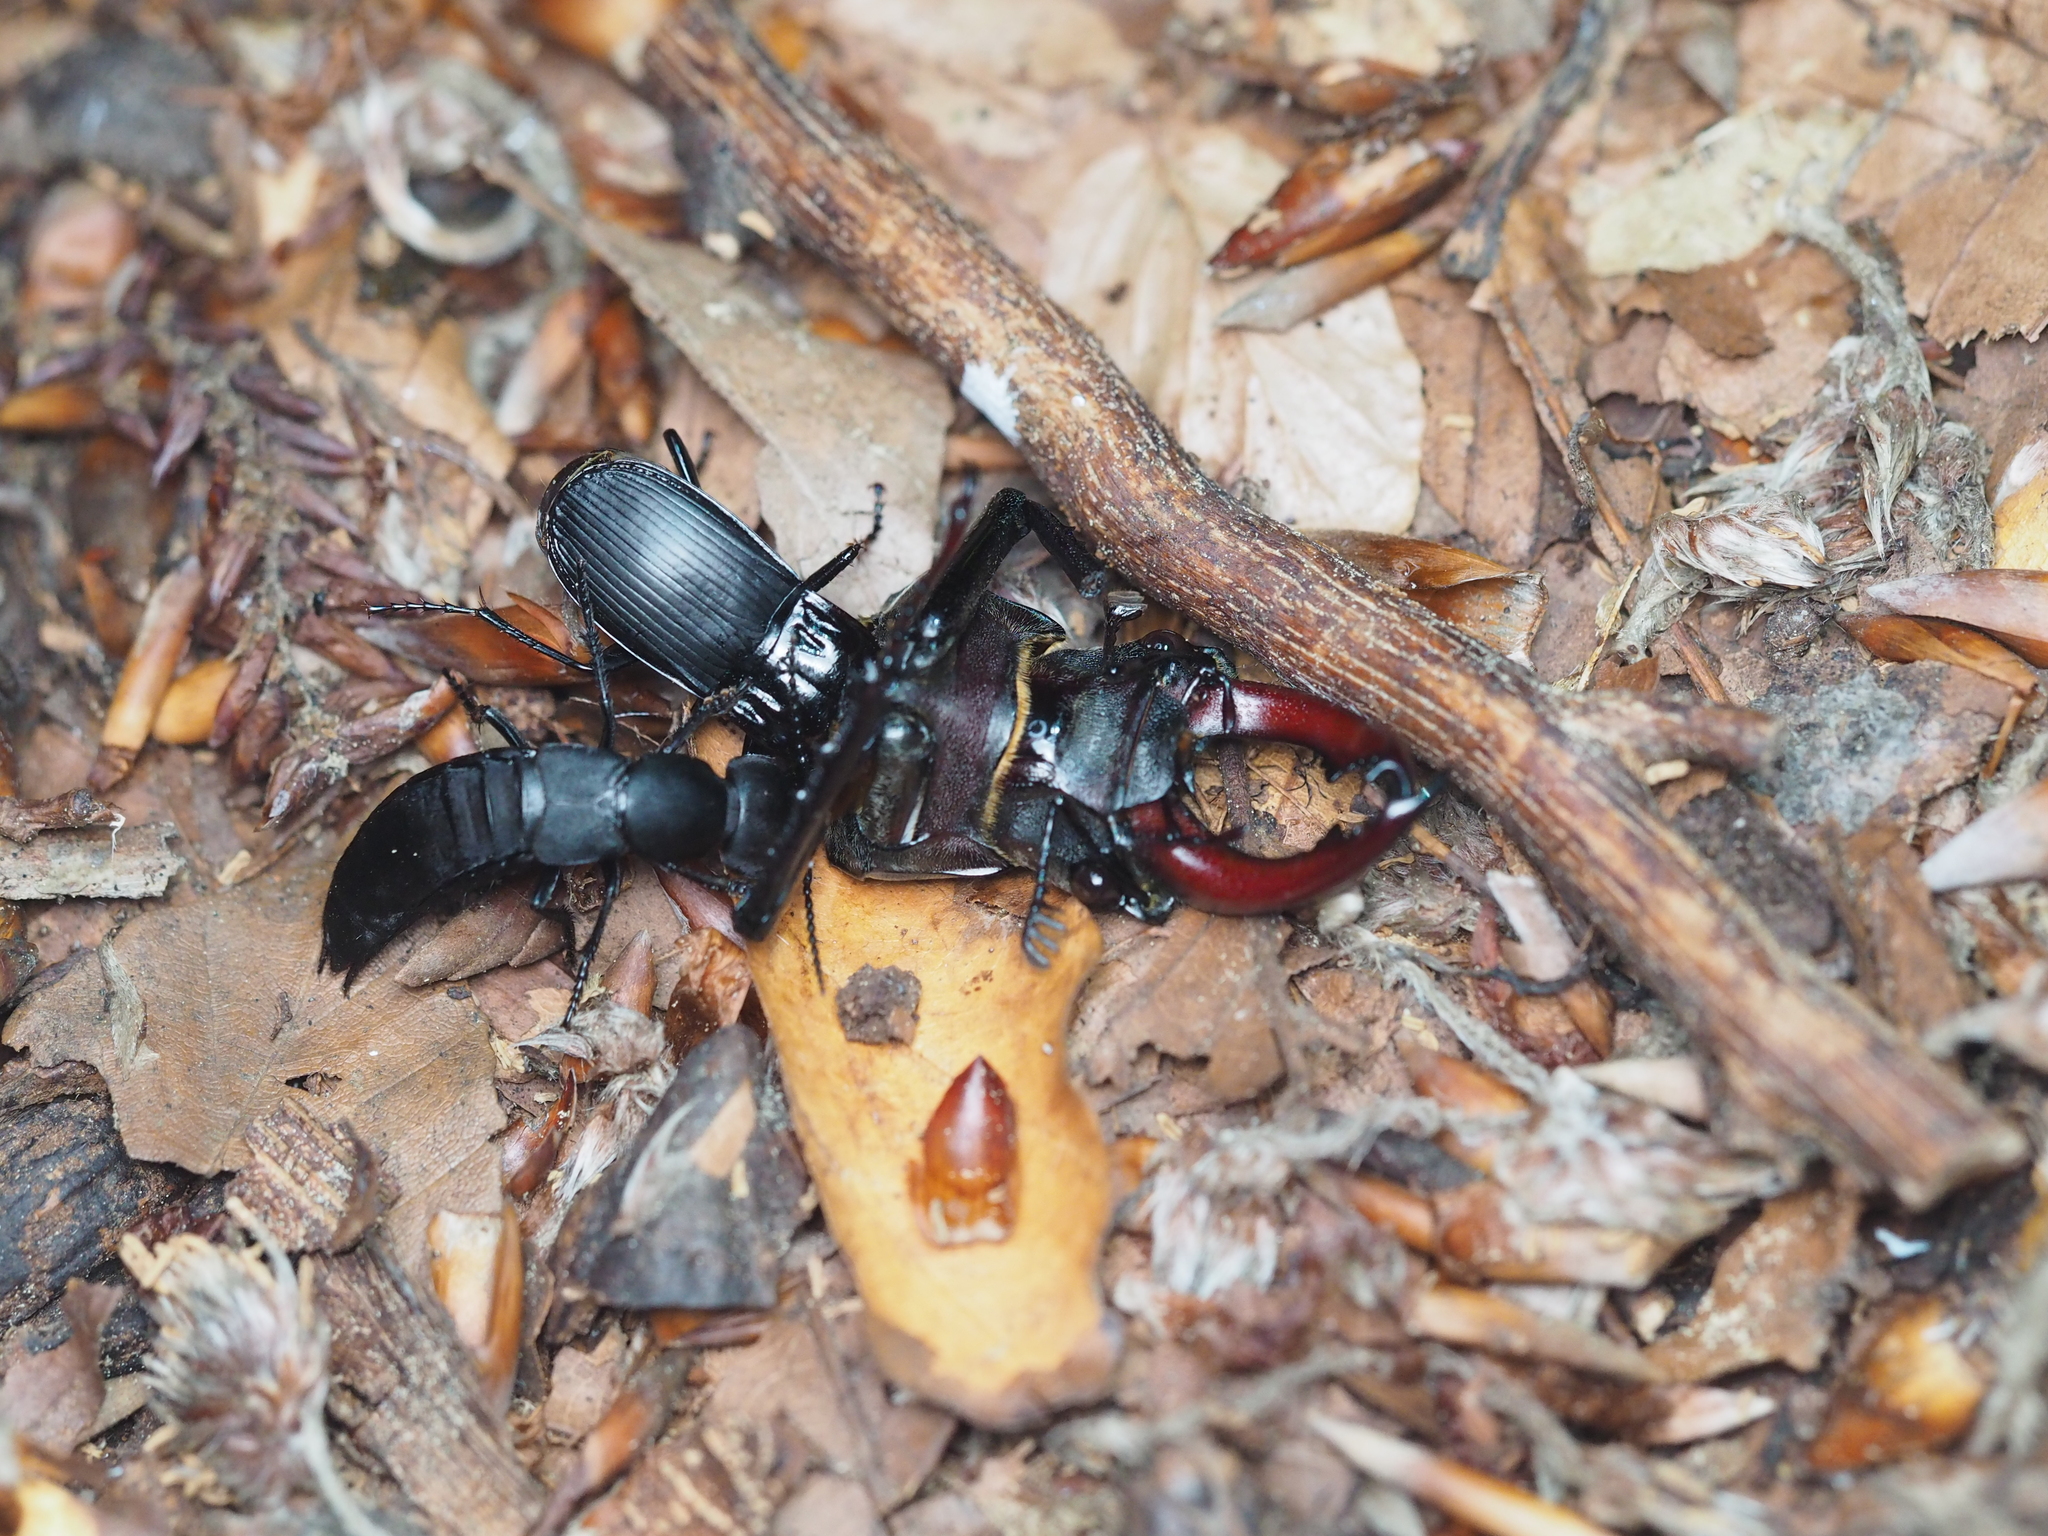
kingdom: Animalia
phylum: Arthropoda
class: Insecta
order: Coleoptera
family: Carabidae
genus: Abax
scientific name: Abax parallelepipedus
